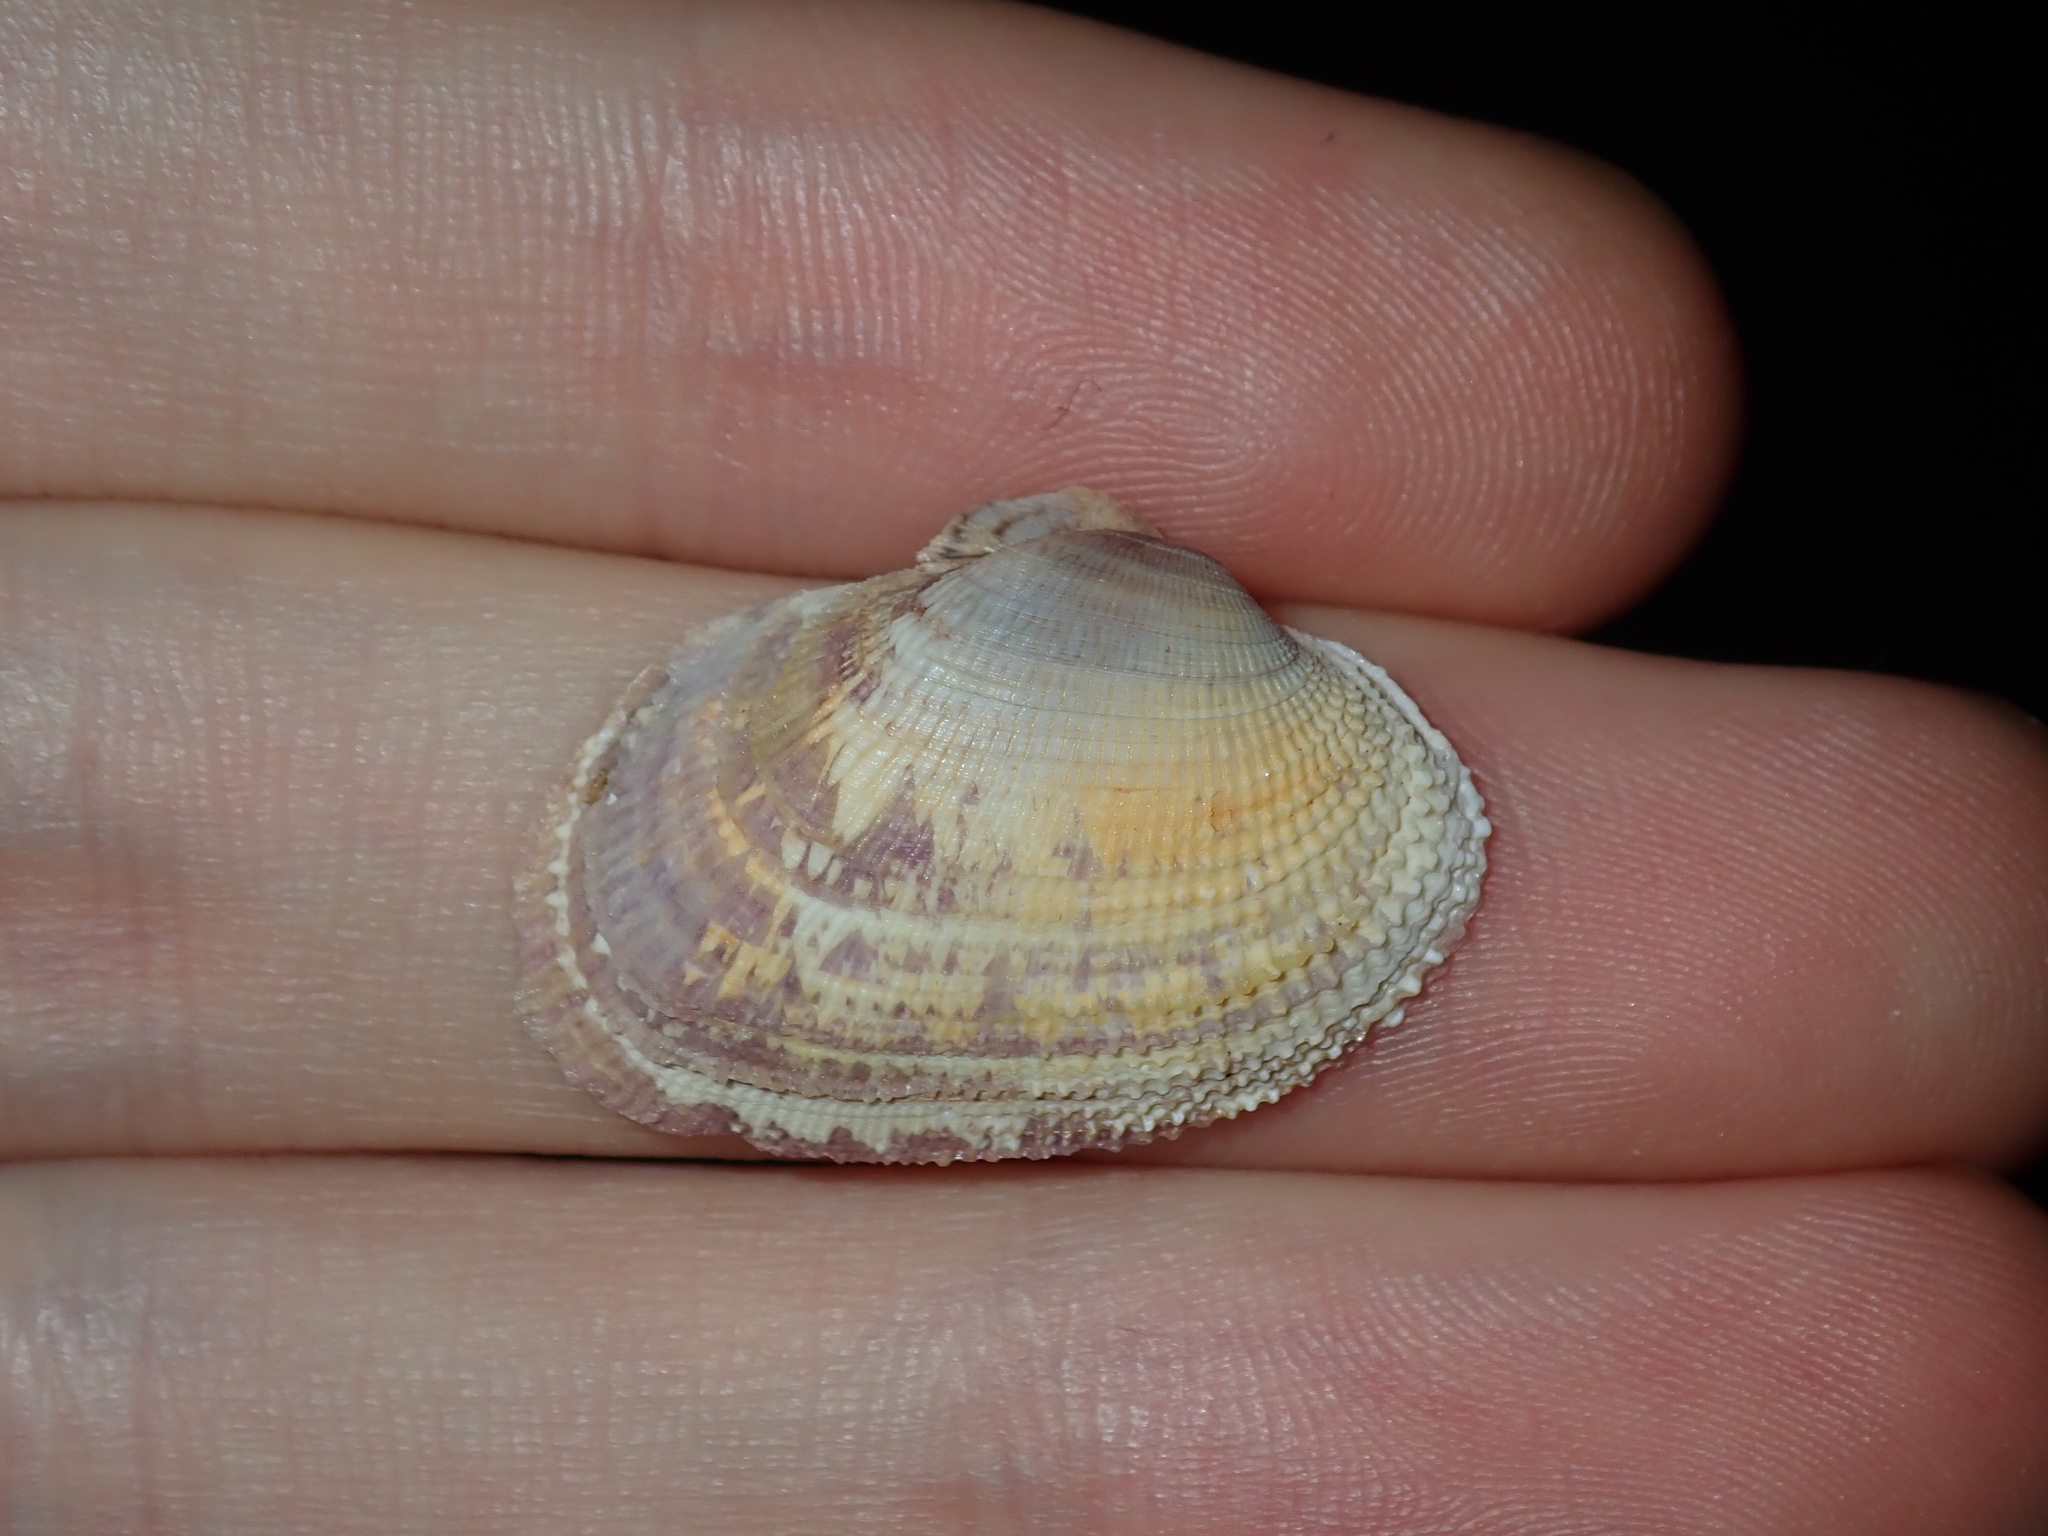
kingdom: Animalia
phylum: Mollusca
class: Bivalvia
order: Venerida
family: Veneridae
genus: Irus
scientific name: Irus crenatus
